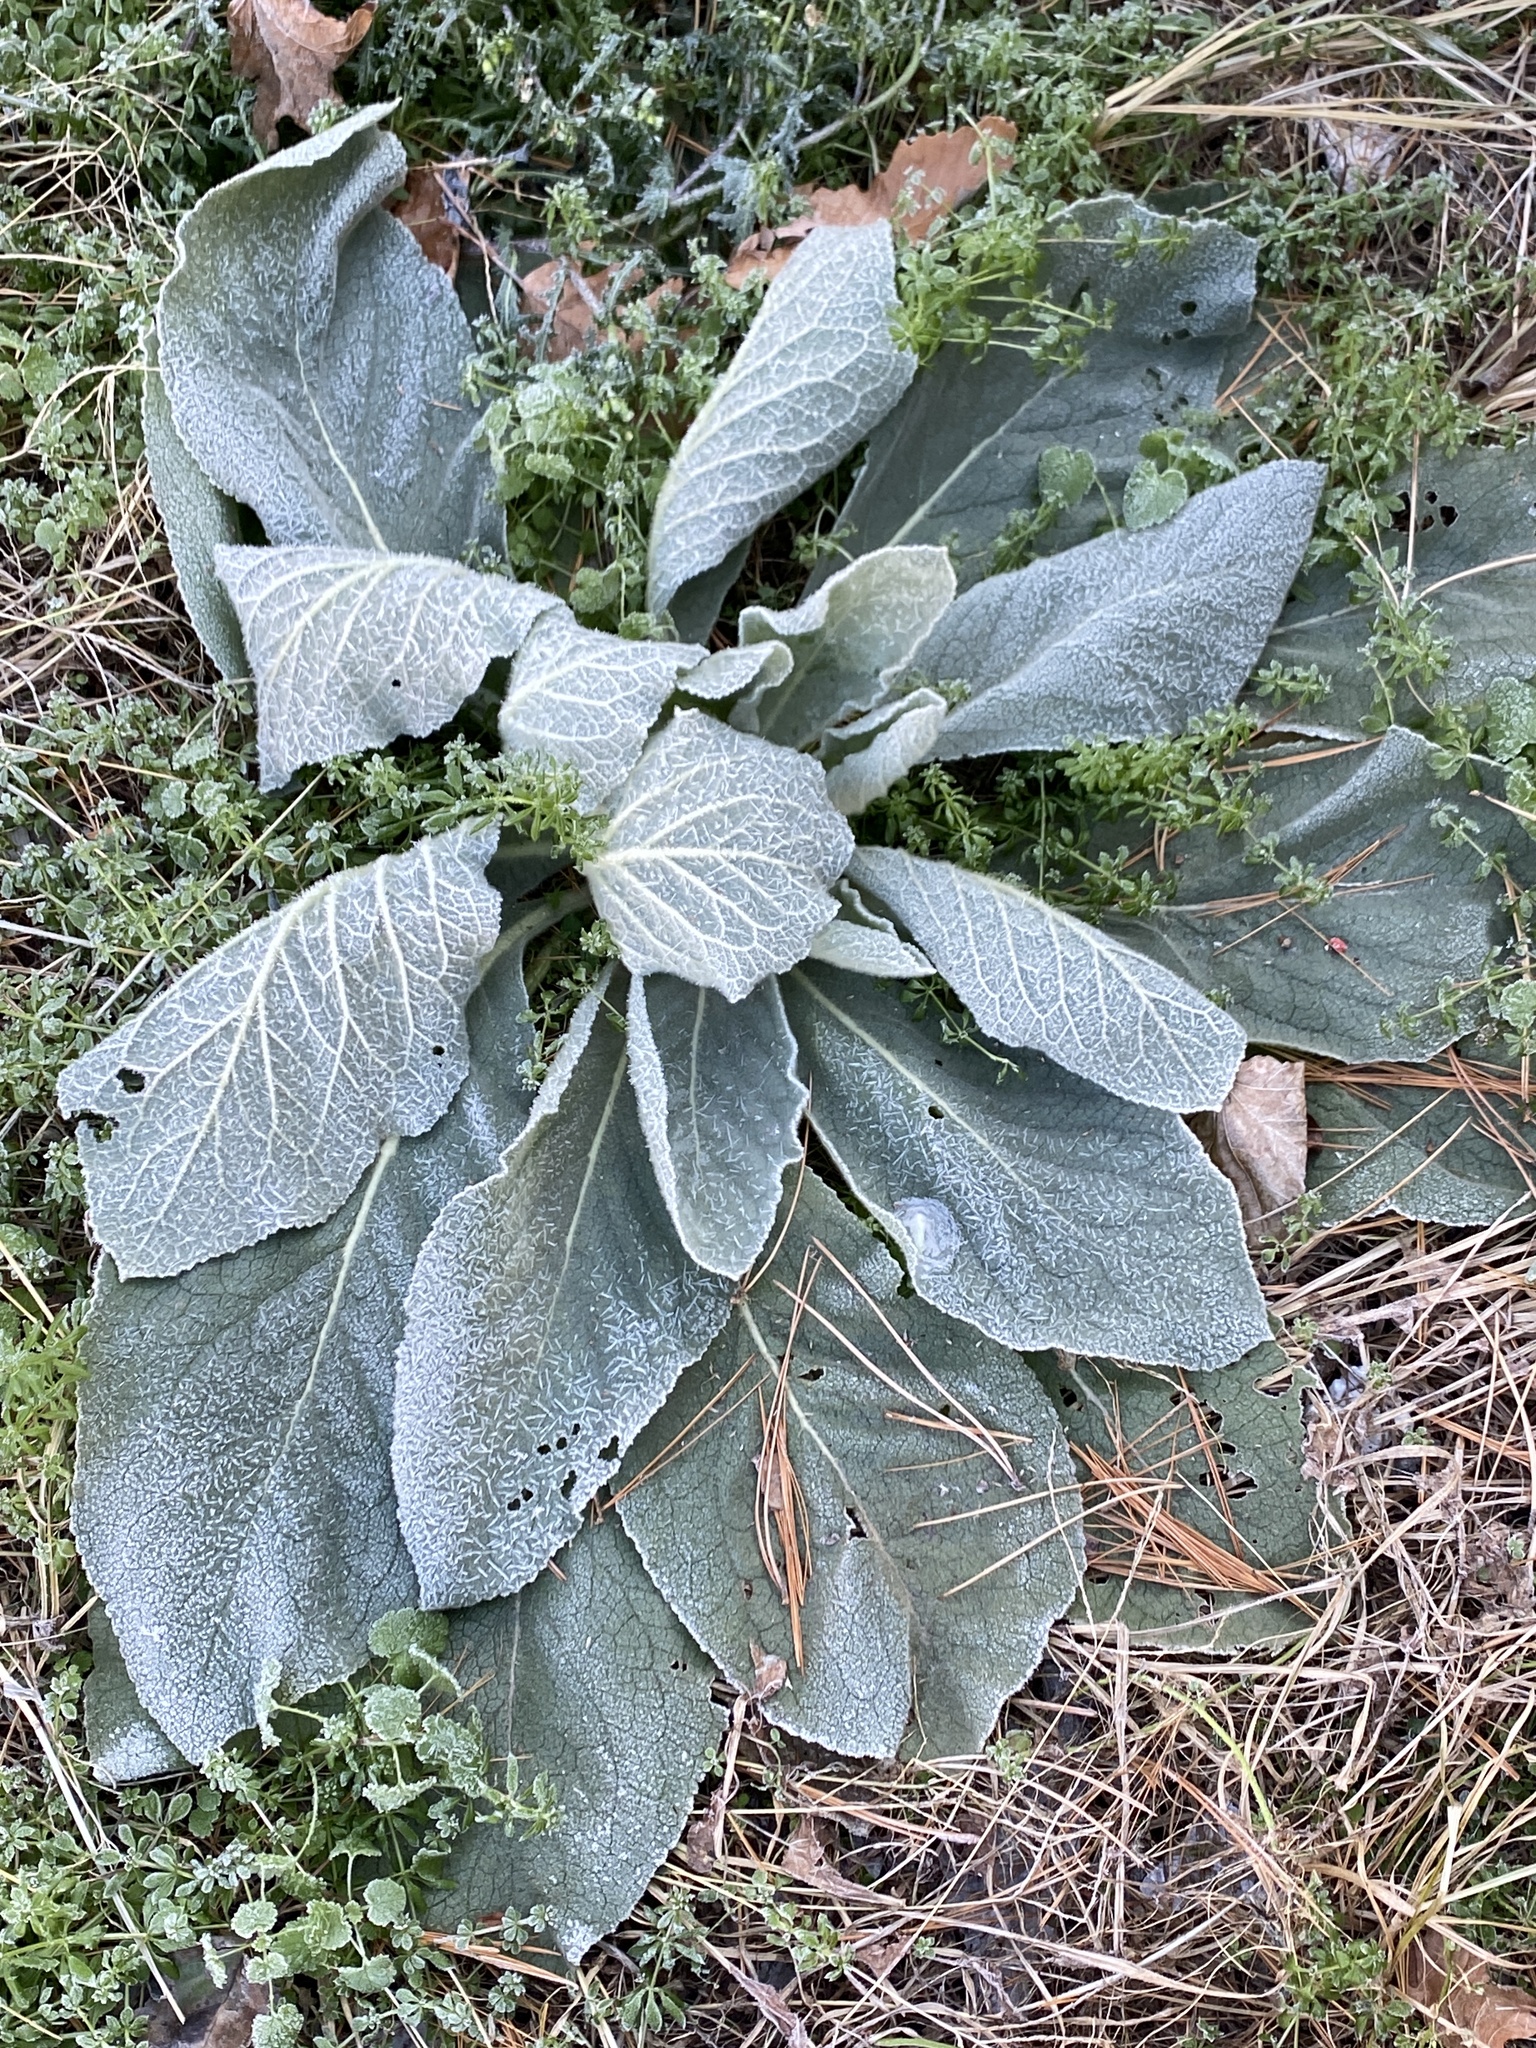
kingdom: Plantae
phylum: Tracheophyta
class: Magnoliopsida
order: Lamiales
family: Scrophulariaceae
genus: Verbascum
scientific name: Verbascum thapsus
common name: Common mullein
